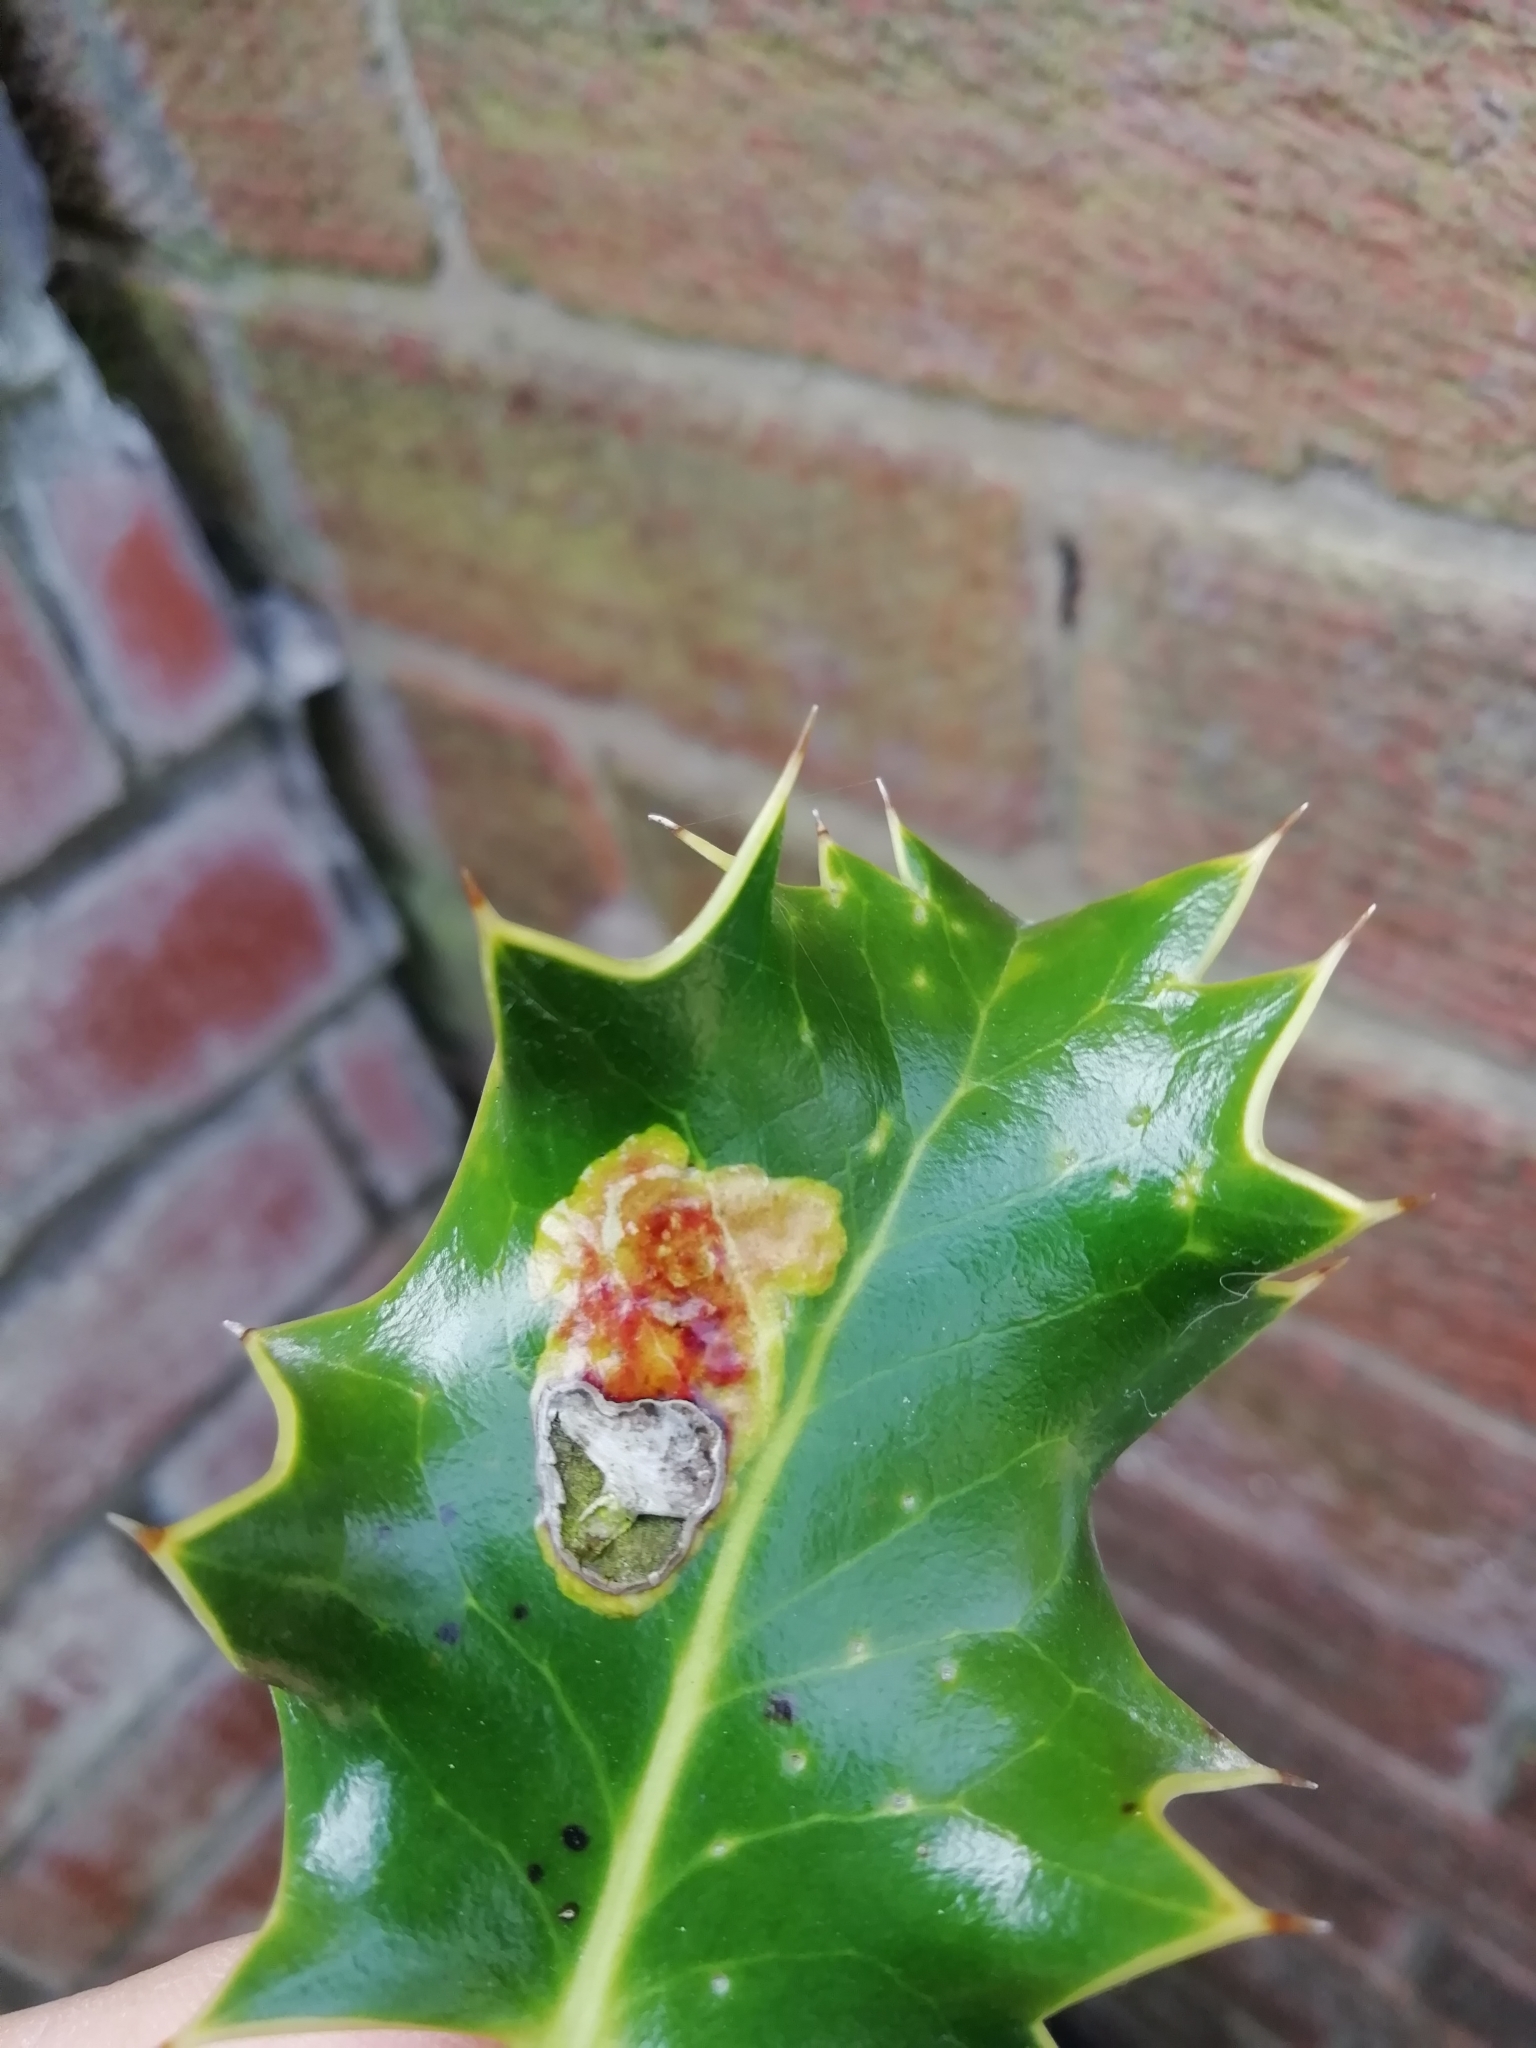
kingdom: Animalia
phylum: Arthropoda
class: Insecta
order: Diptera
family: Agromyzidae
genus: Phytomyza
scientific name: Phytomyza ilicis
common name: Holly leafminer
